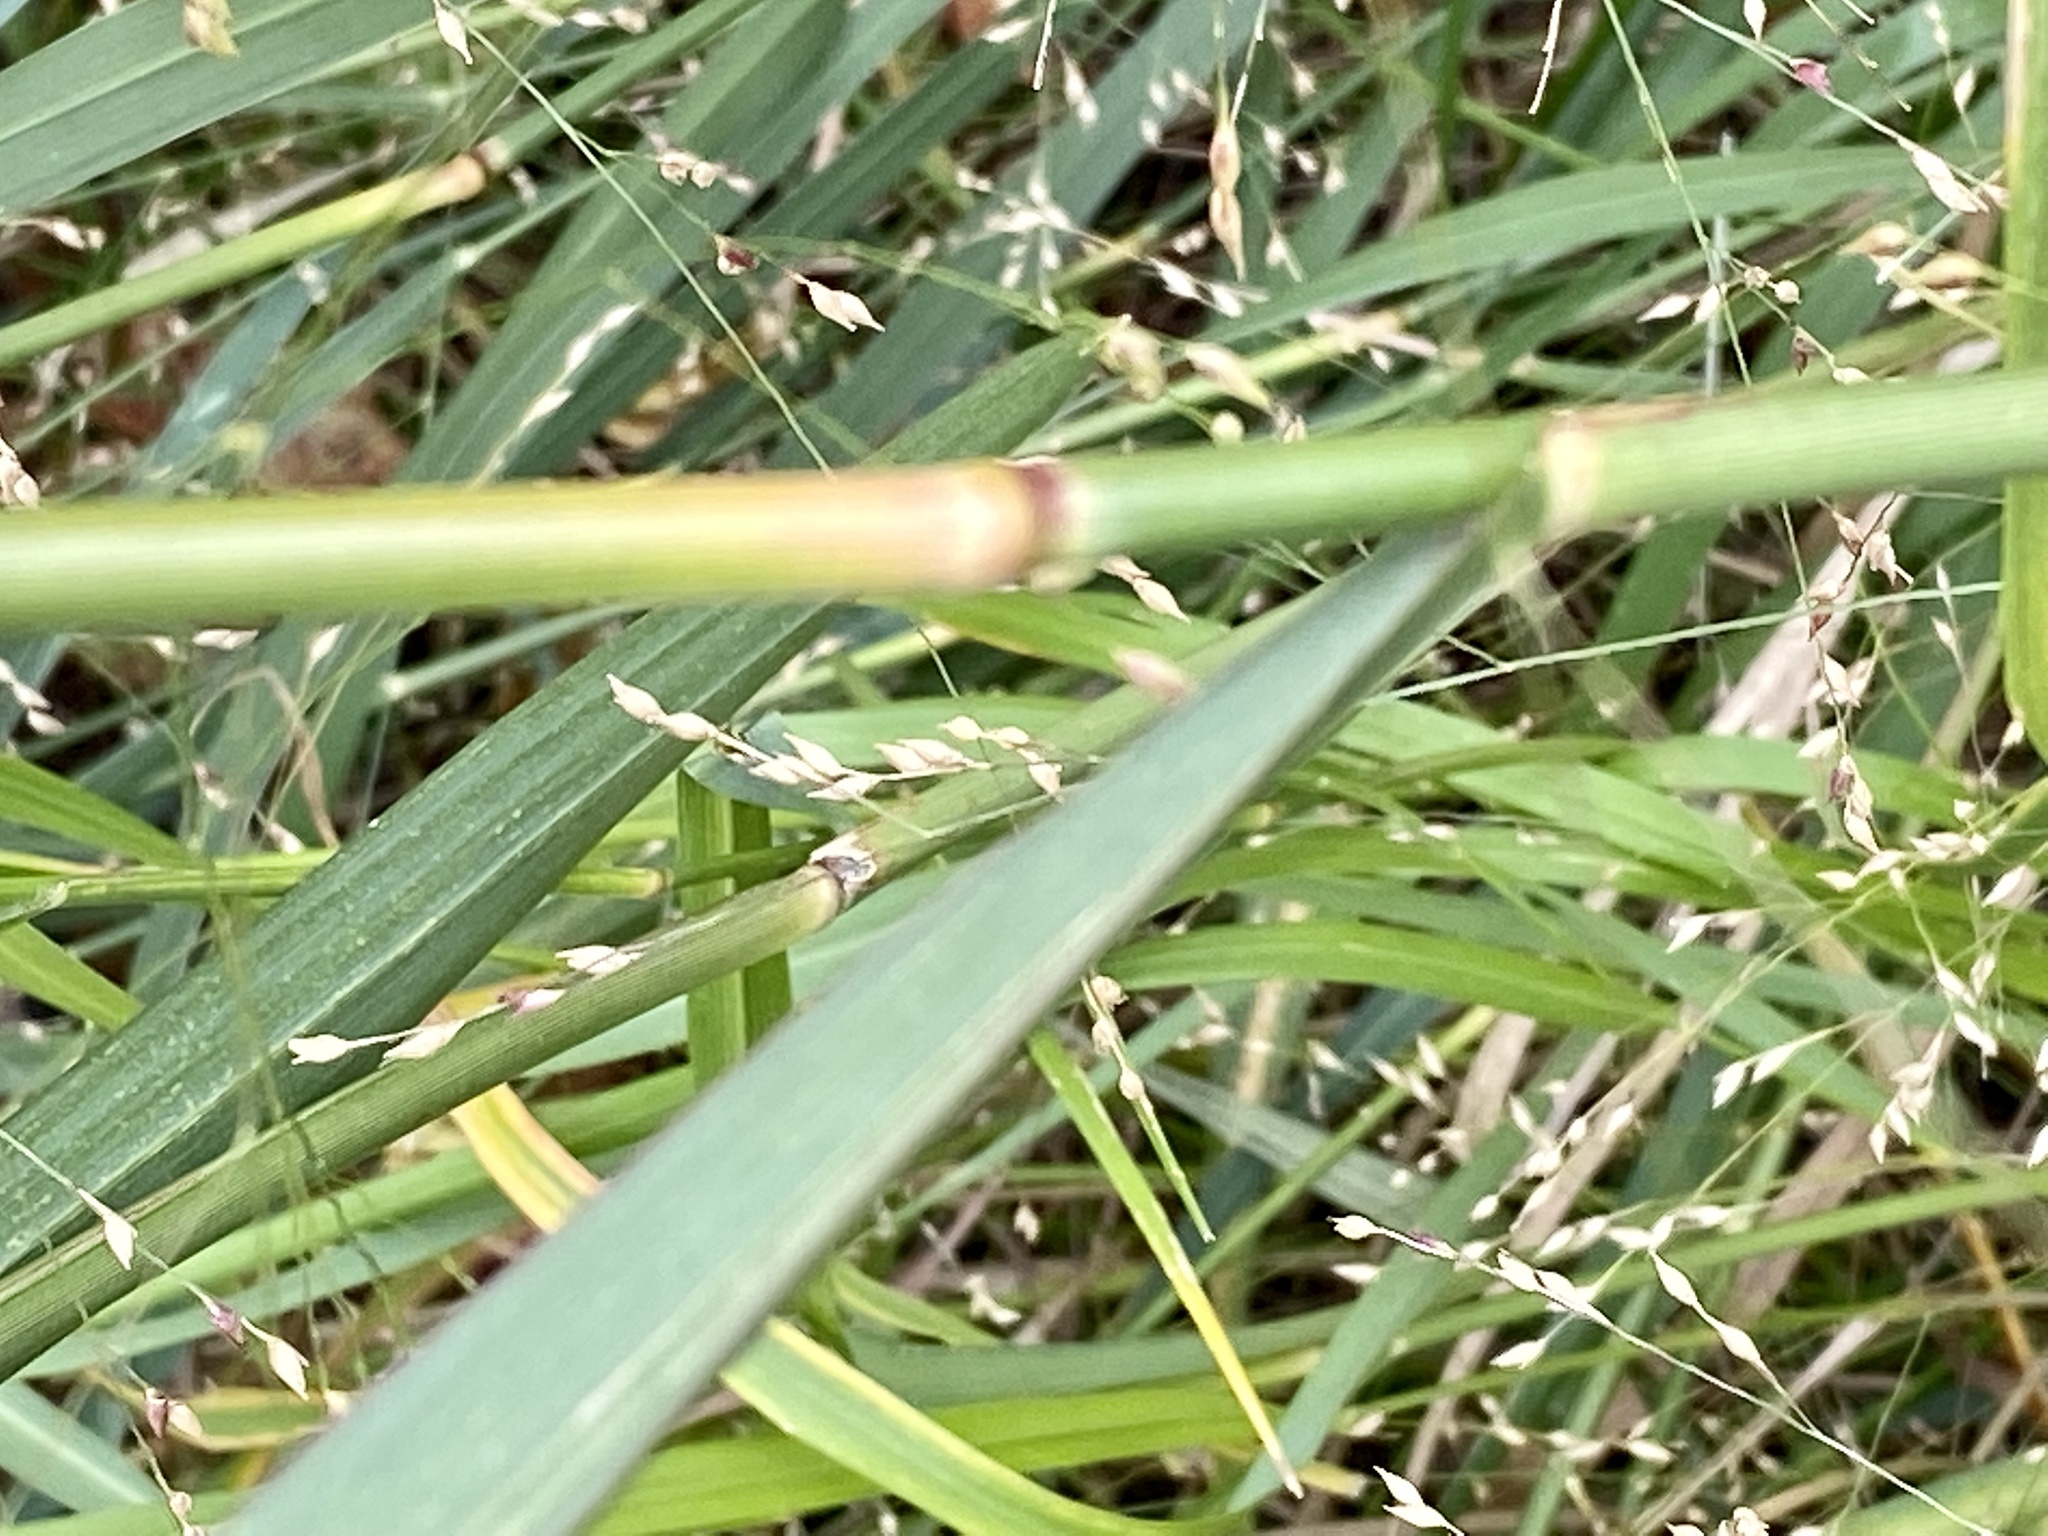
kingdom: Plantae
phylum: Tracheophyta
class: Liliopsida
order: Poales
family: Poaceae
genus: Panicum
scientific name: Panicum virgatum
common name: Switchgrass
